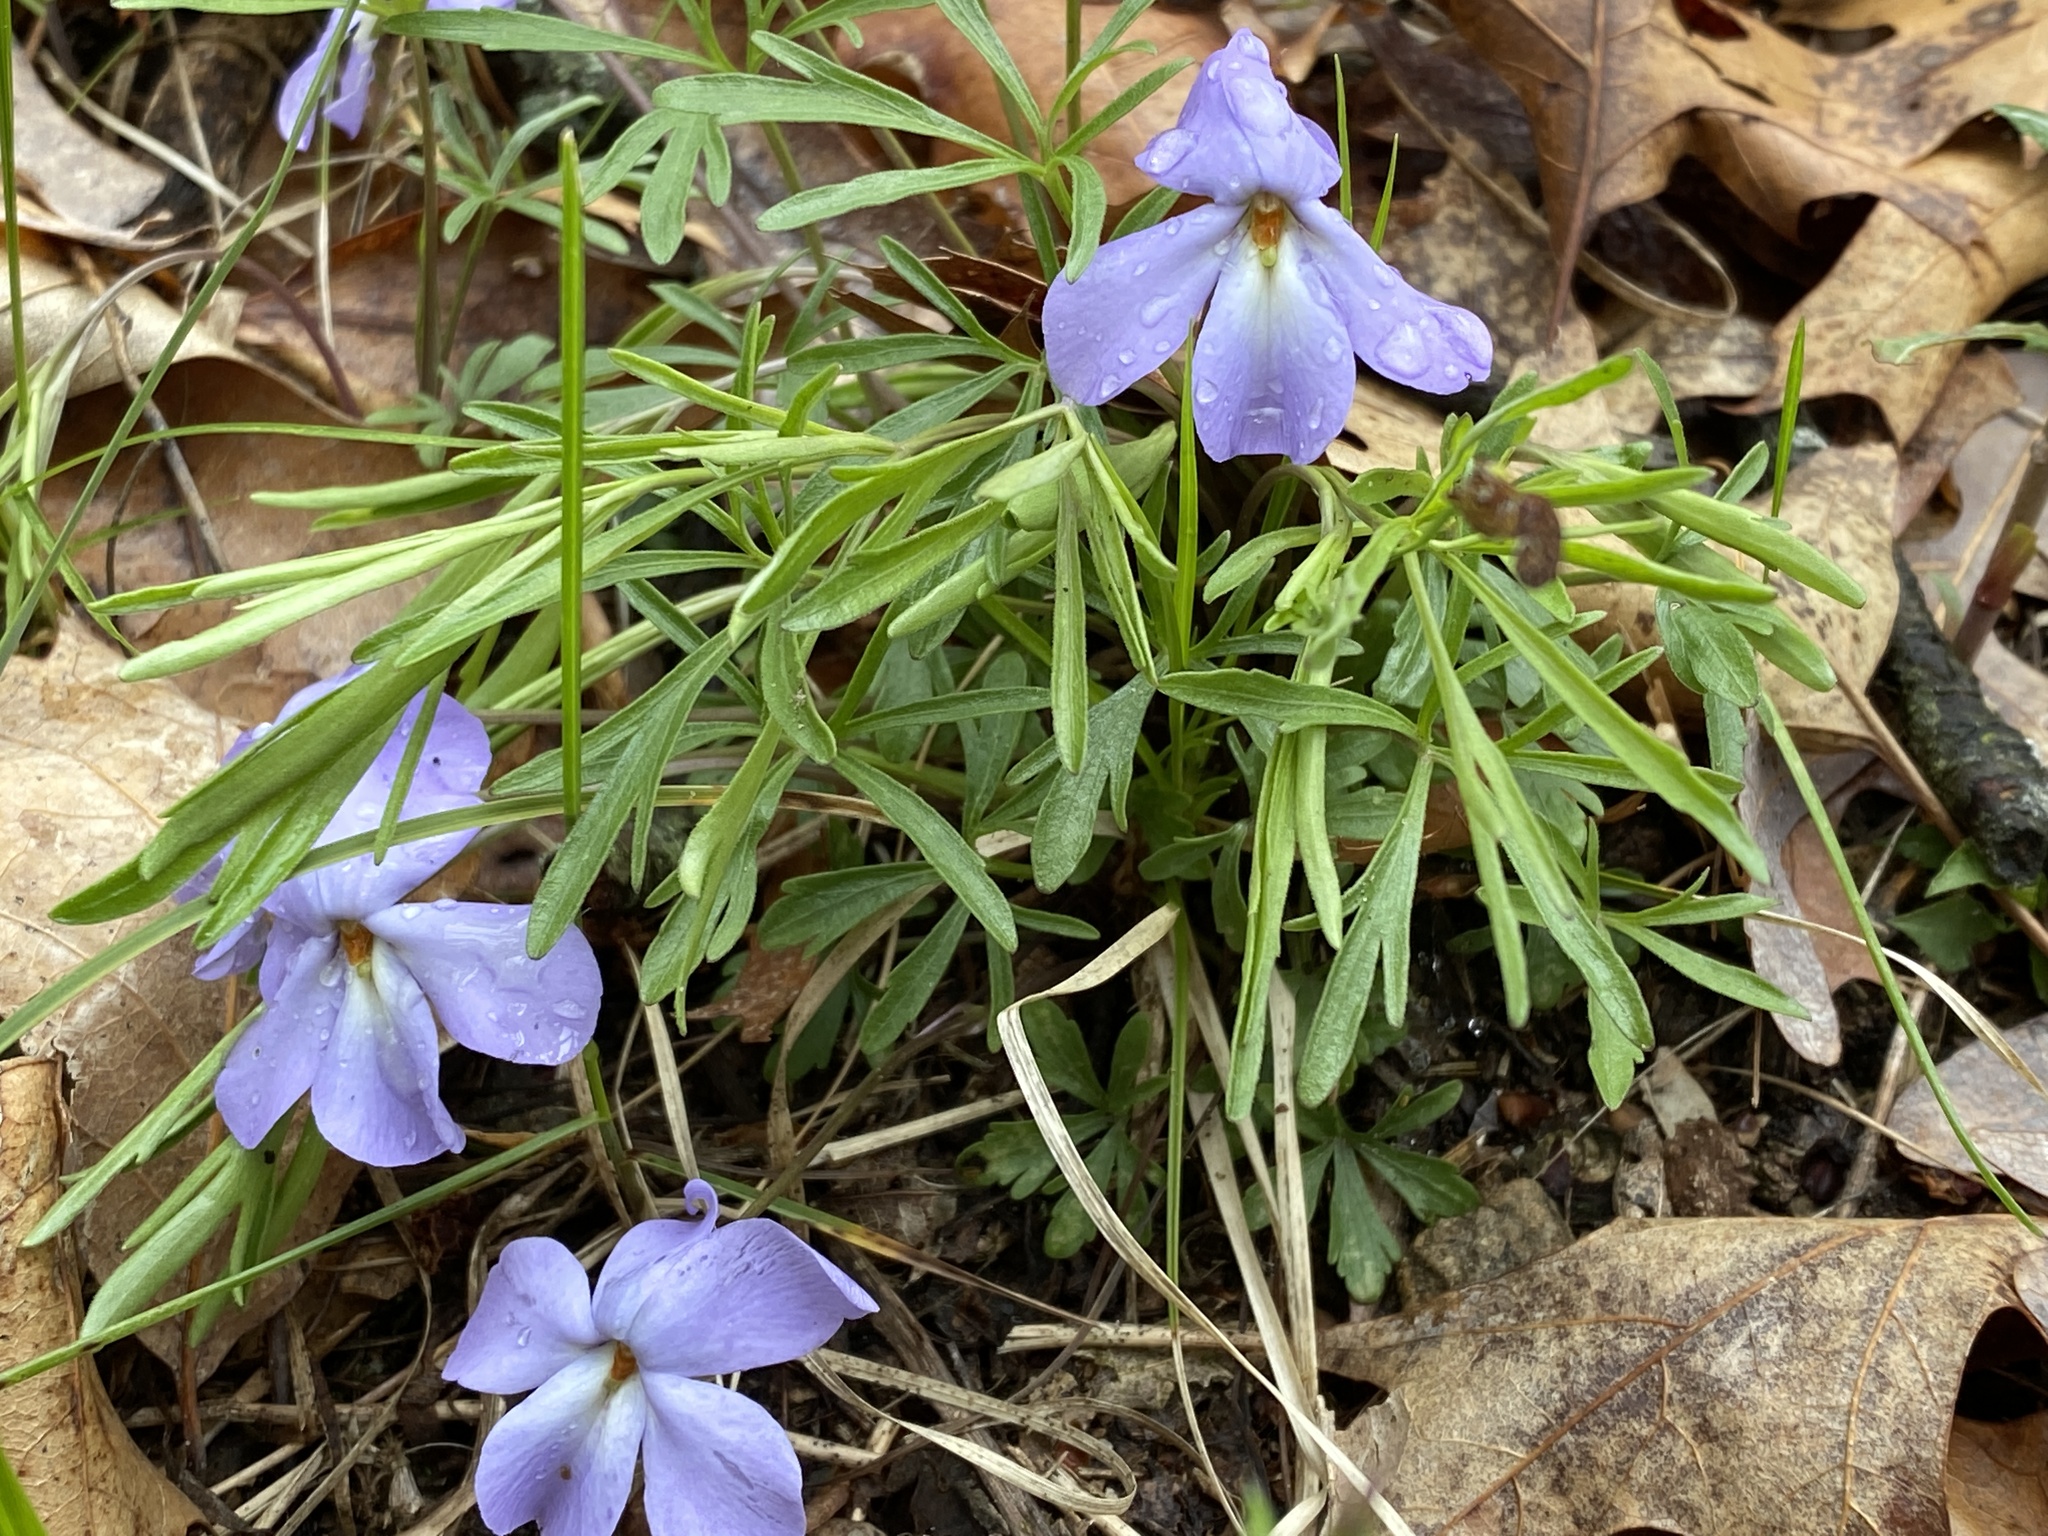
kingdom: Plantae
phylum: Tracheophyta
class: Magnoliopsida
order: Malpighiales
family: Violaceae
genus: Viola
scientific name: Viola pedata
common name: Pansy violet
